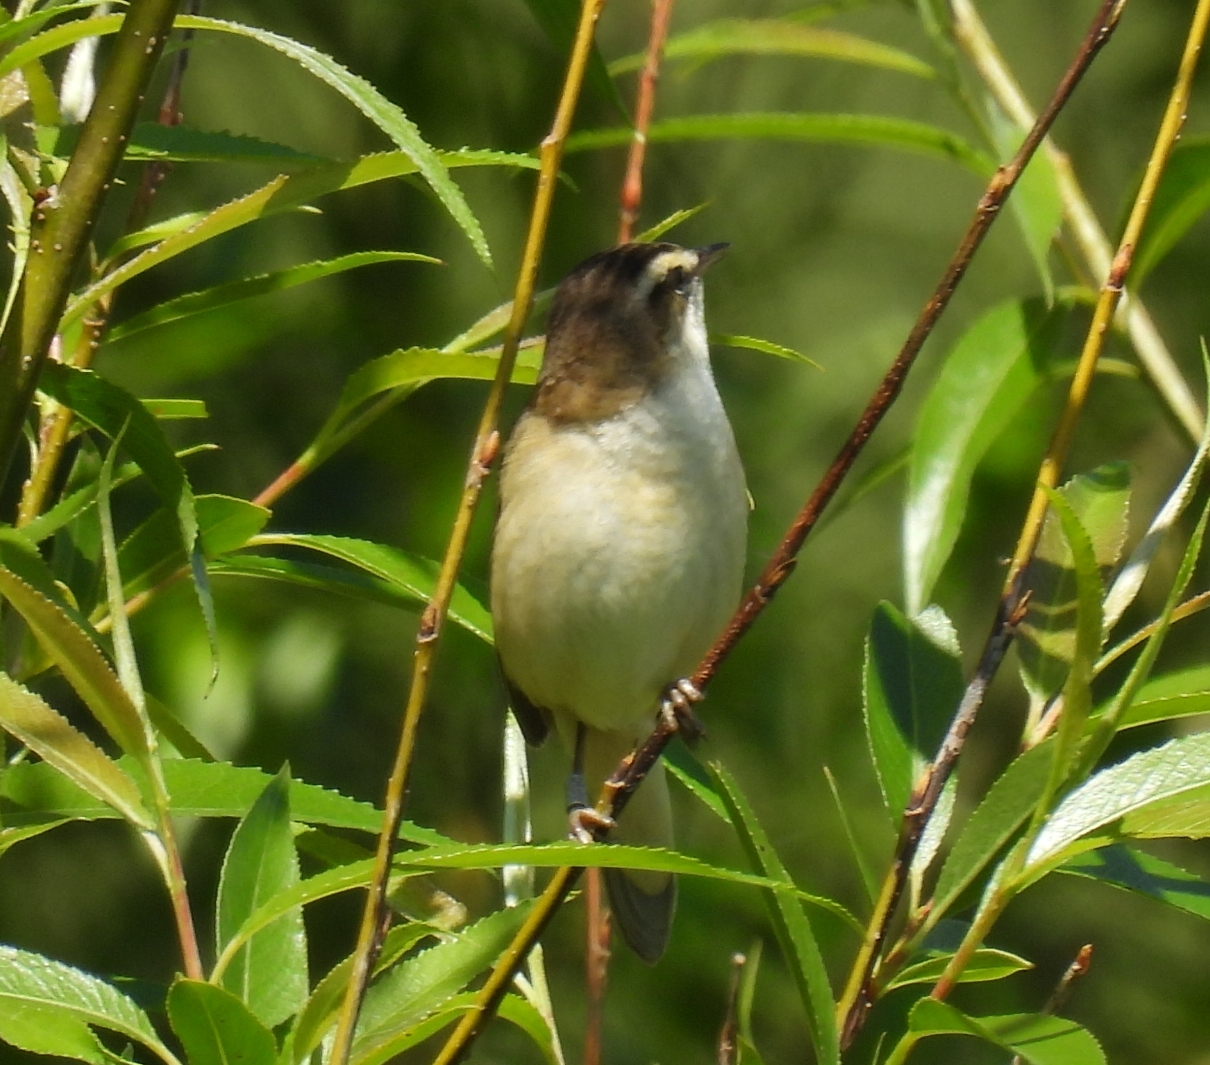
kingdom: Animalia
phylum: Chordata
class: Aves
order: Passeriformes
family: Acrocephalidae
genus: Acrocephalus
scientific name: Acrocephalus schoenobaenus
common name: Sedge warbler
